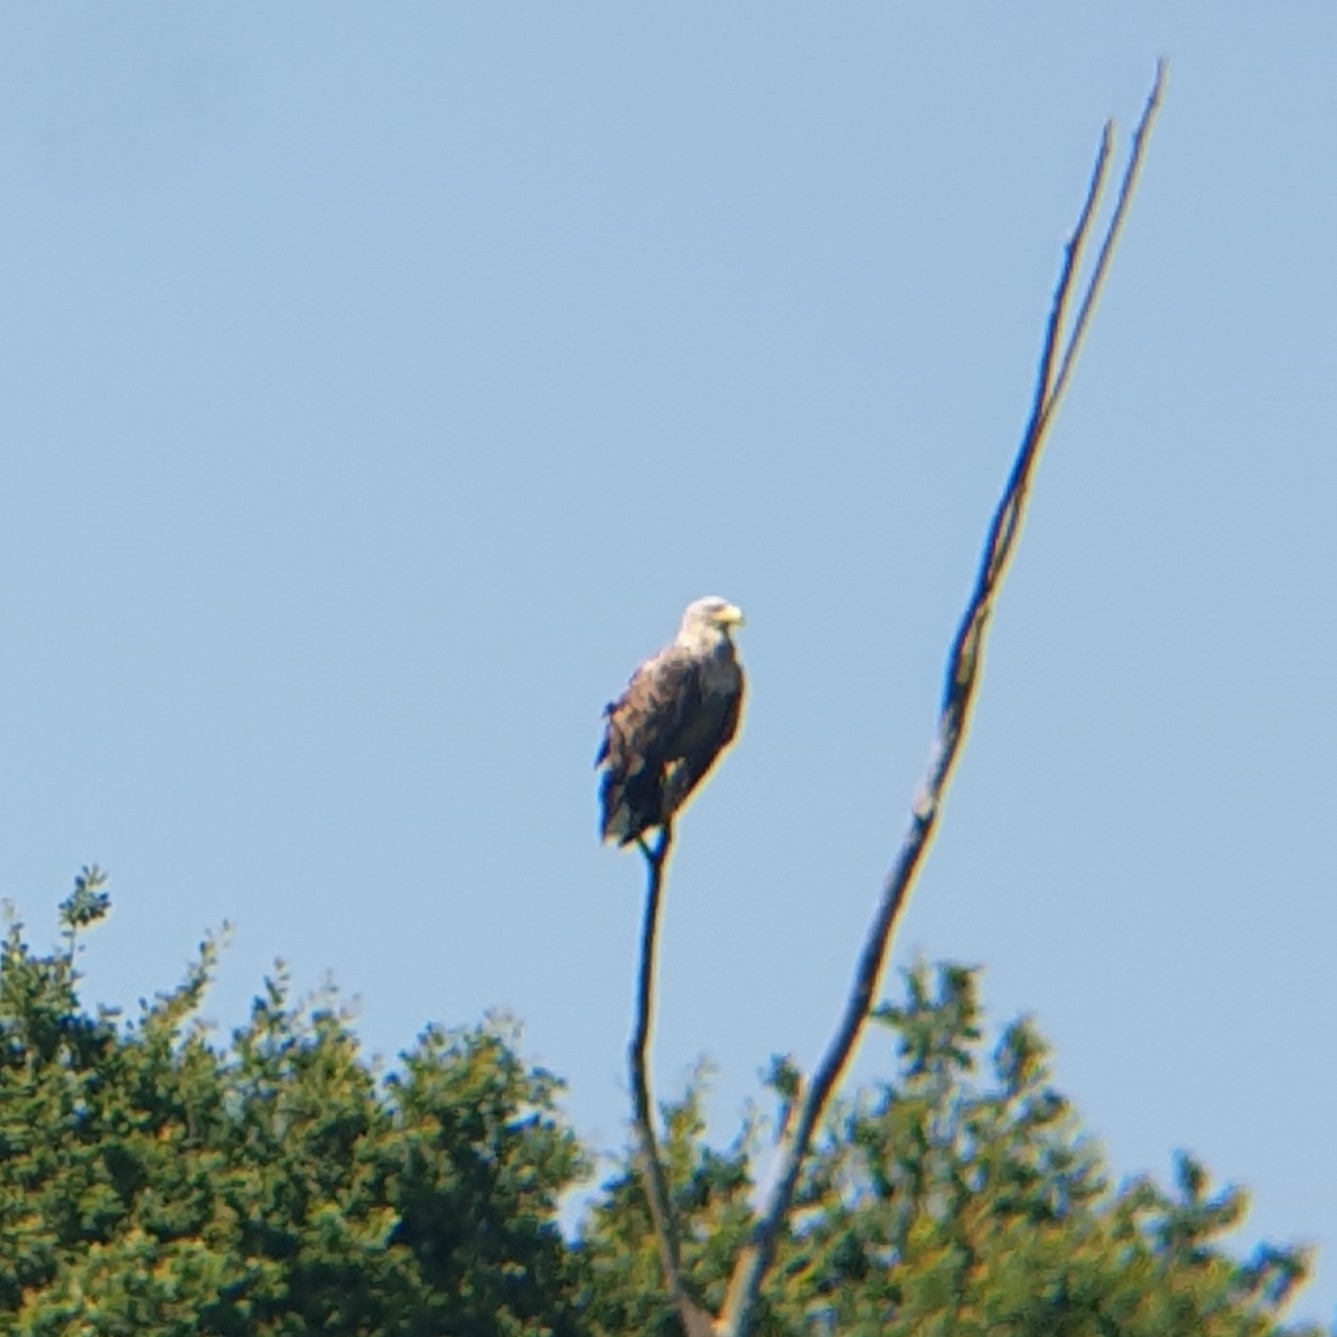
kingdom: Animalia
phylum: Chordata
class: Aves
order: Accipitriformes
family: Accipitridae
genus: Haliaeetus
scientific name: Haliaeetus albicilla
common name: White-tailed eagle
